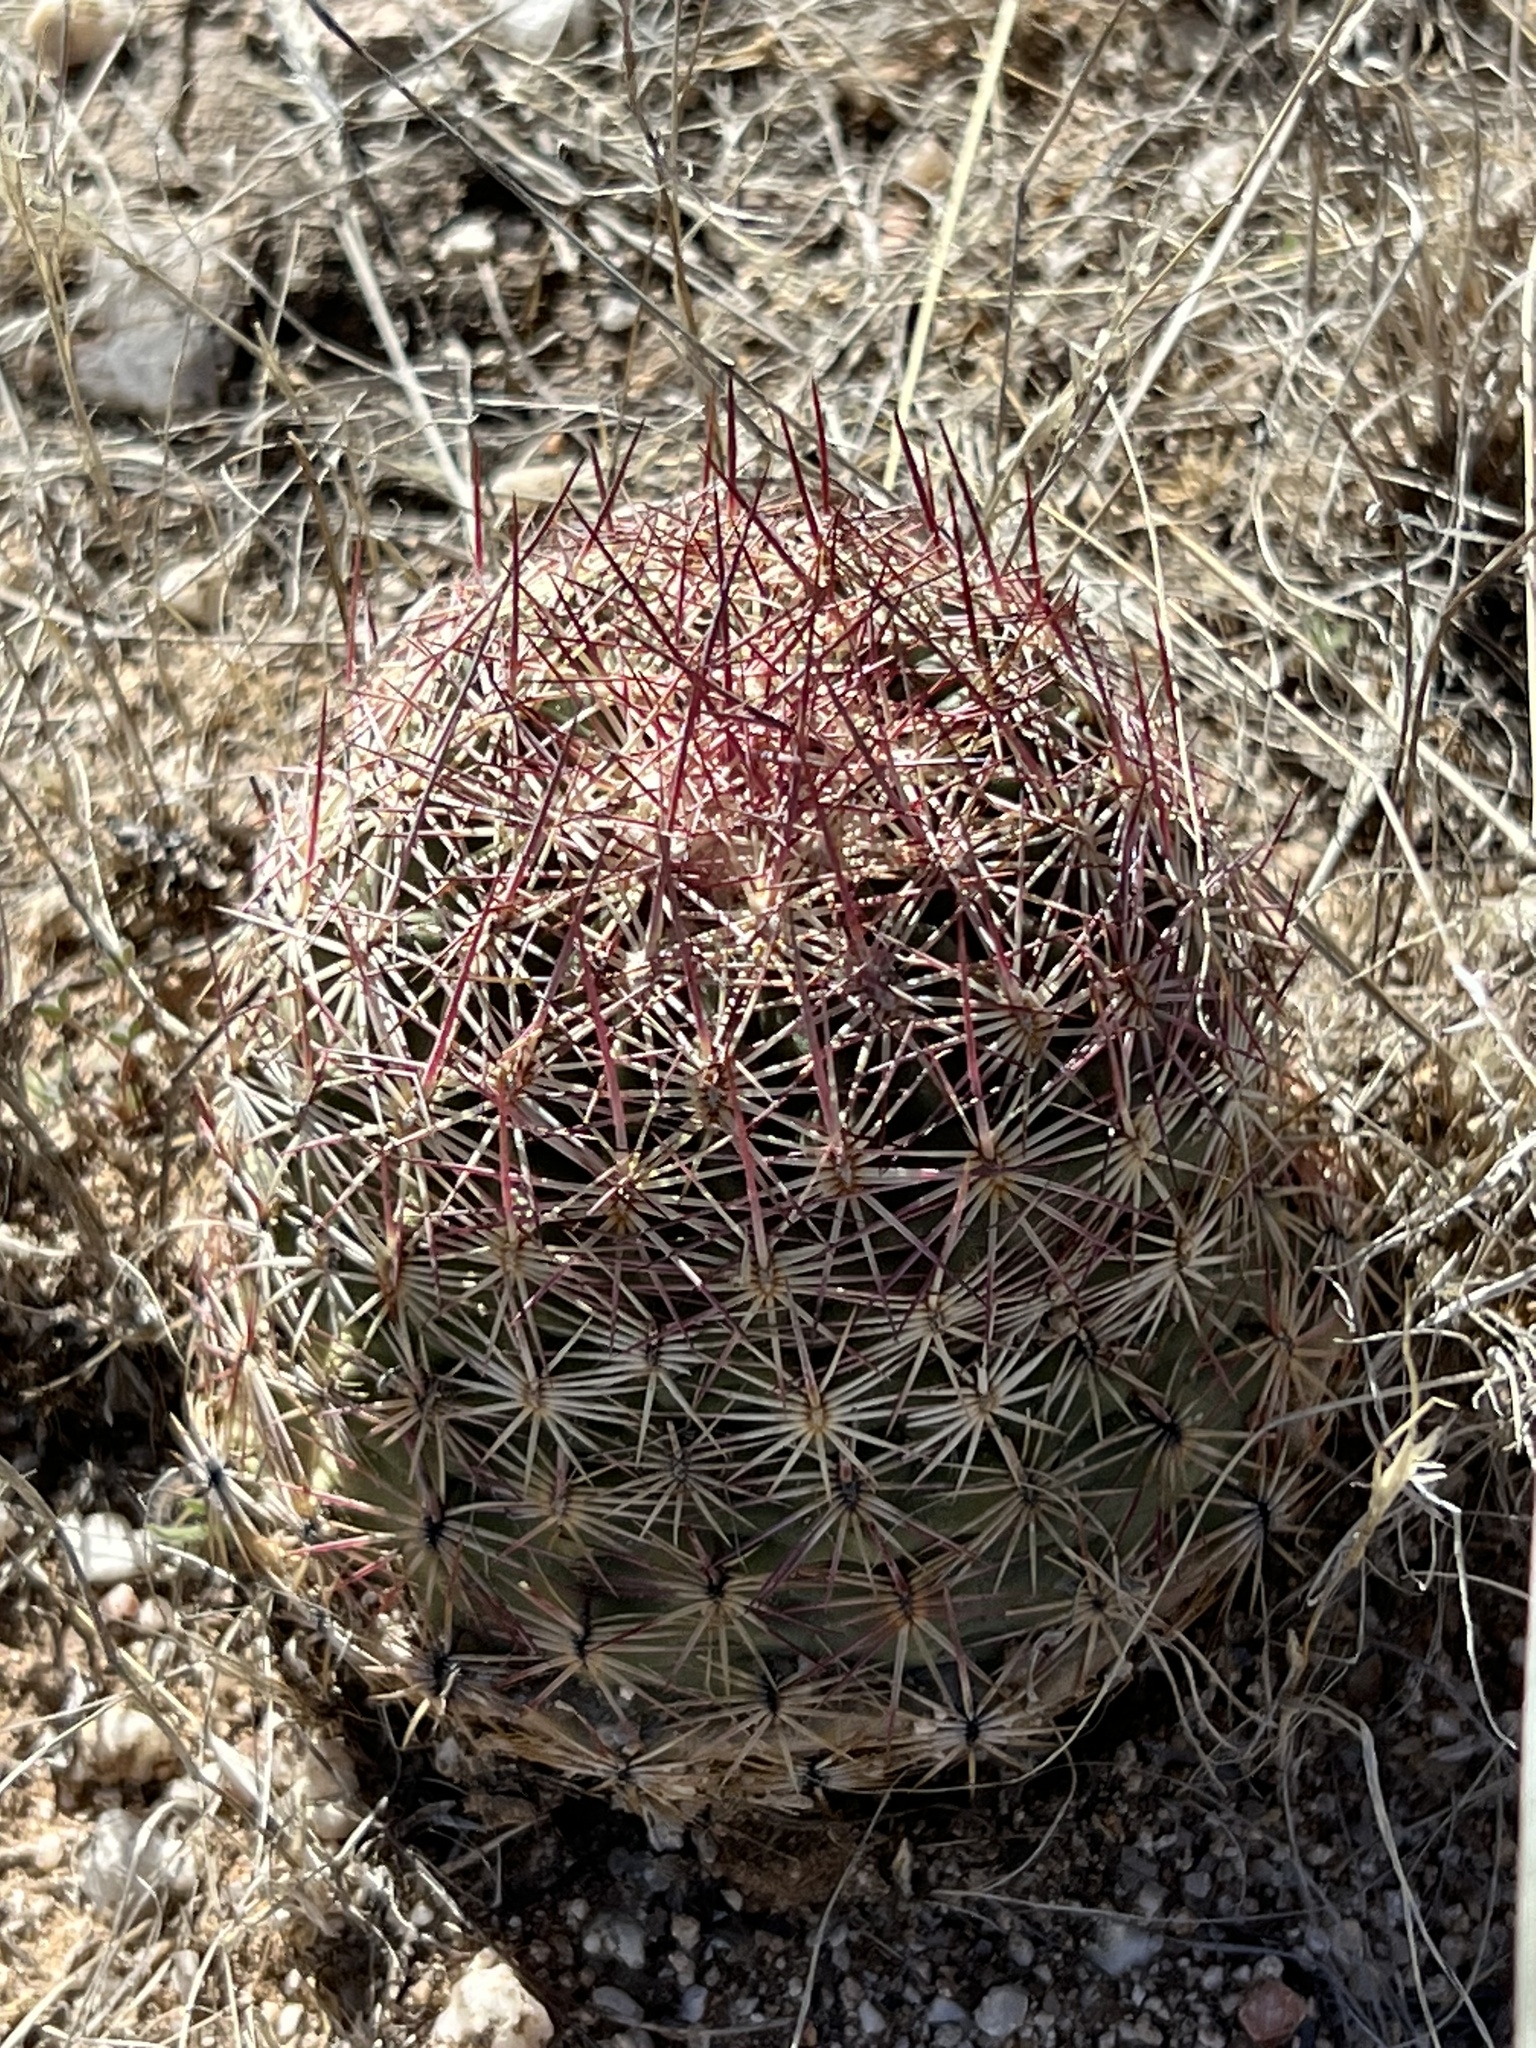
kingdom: Plantae
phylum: Tracheophyta
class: Magnoliopsida
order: Caryophyllales
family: Cactaceae
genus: Sclerocactus
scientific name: Sclerocactus johnsonii
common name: Eight-spine fishhook cactus
